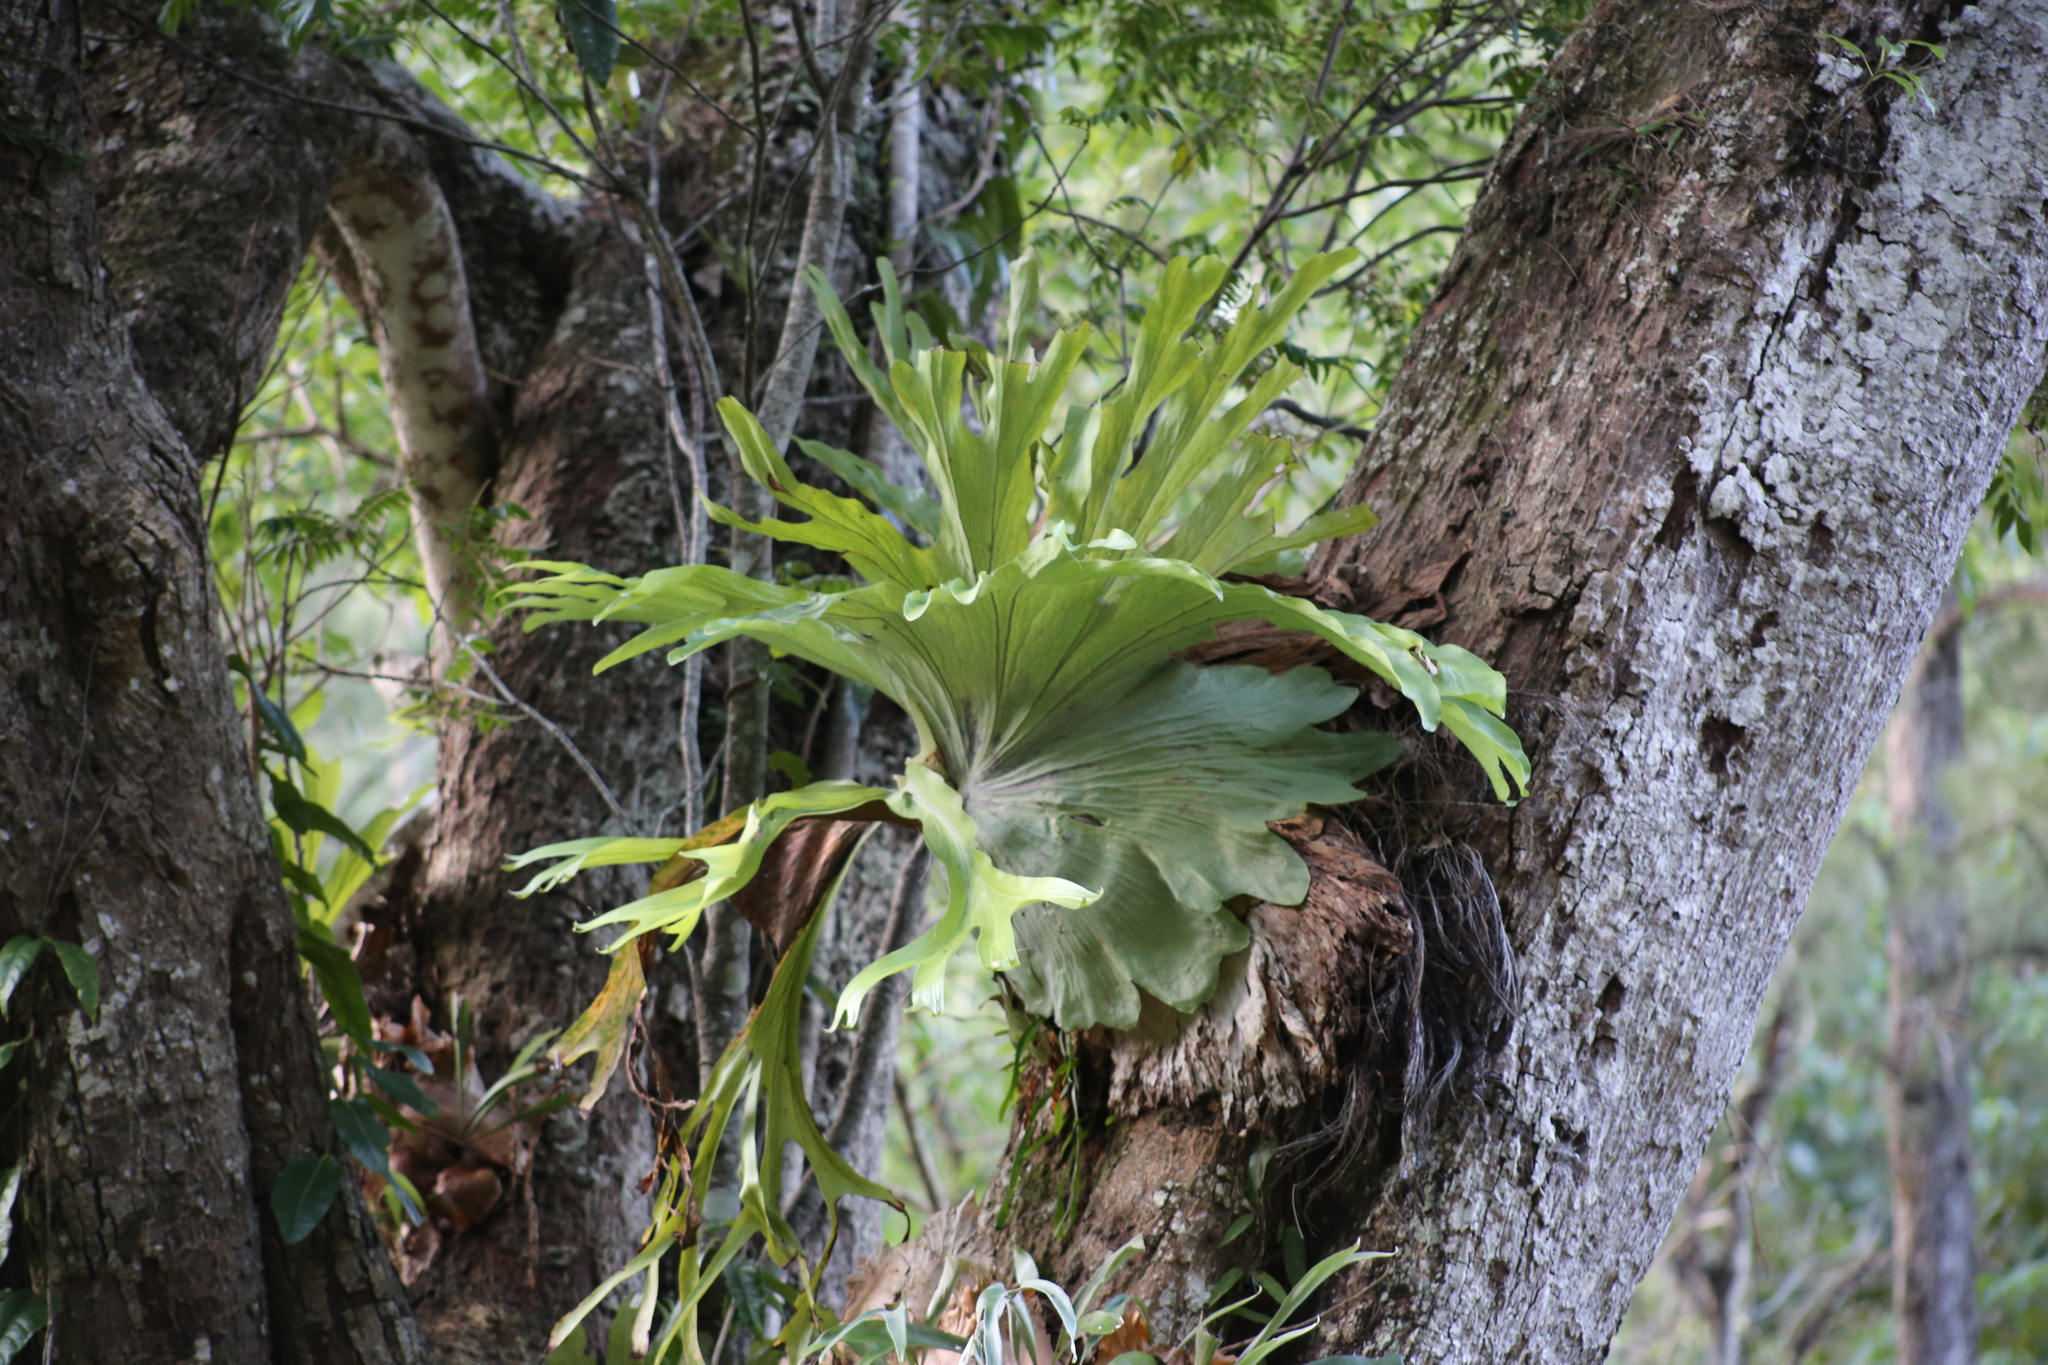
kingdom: Plantae
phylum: Tracheophyta
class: Polypodiopsida
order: Polypodiales
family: Polypodiaceae
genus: Platycerium
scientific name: Platycerium superbum
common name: Staghorn fern
